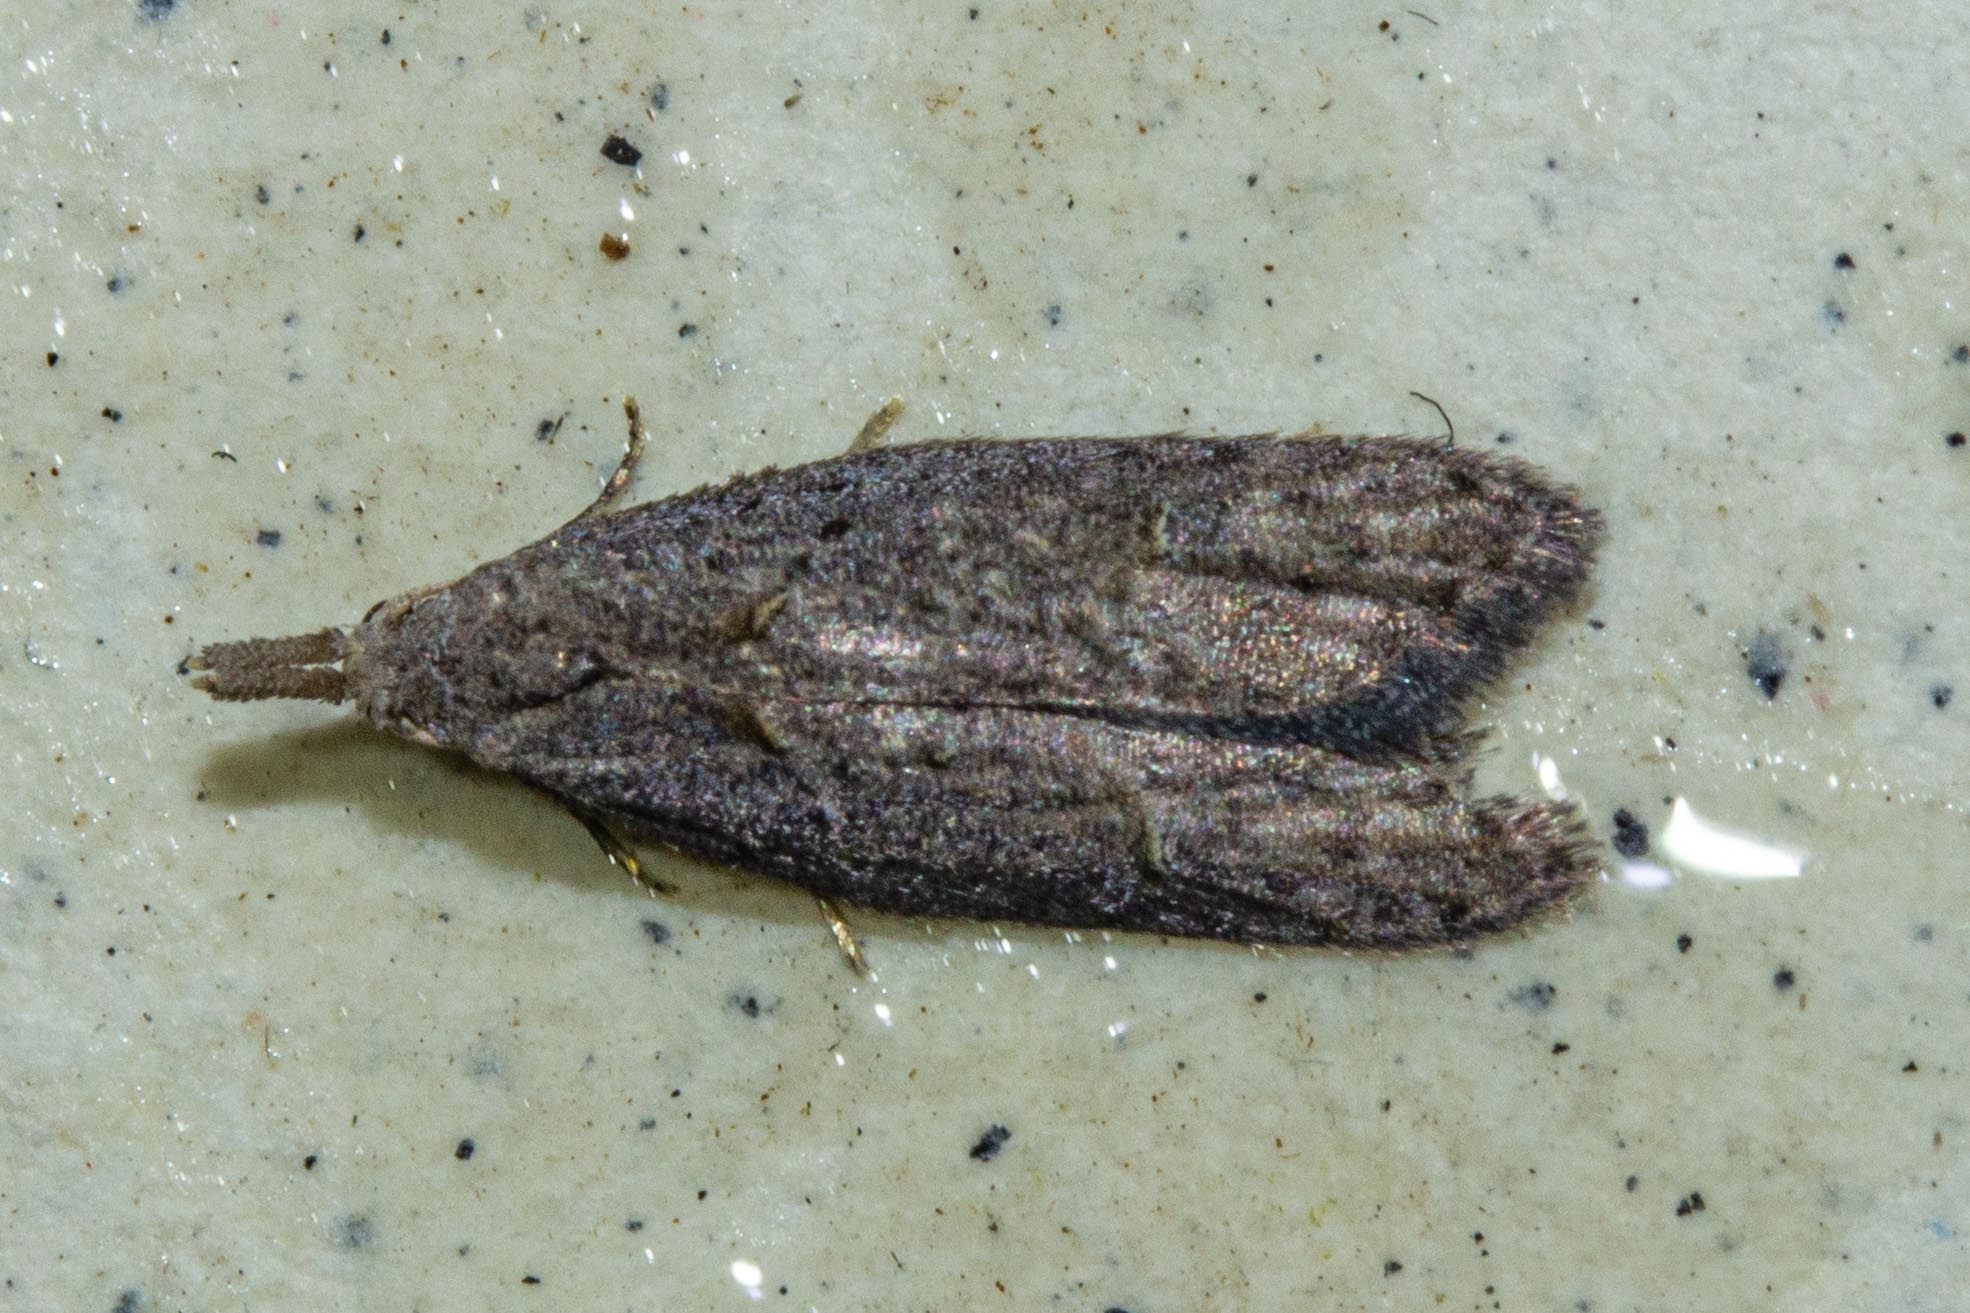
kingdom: Animalia
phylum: Arthropoda
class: Insecta
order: Lepidoptera
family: Carposinidae
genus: Carposina
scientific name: Carposina
